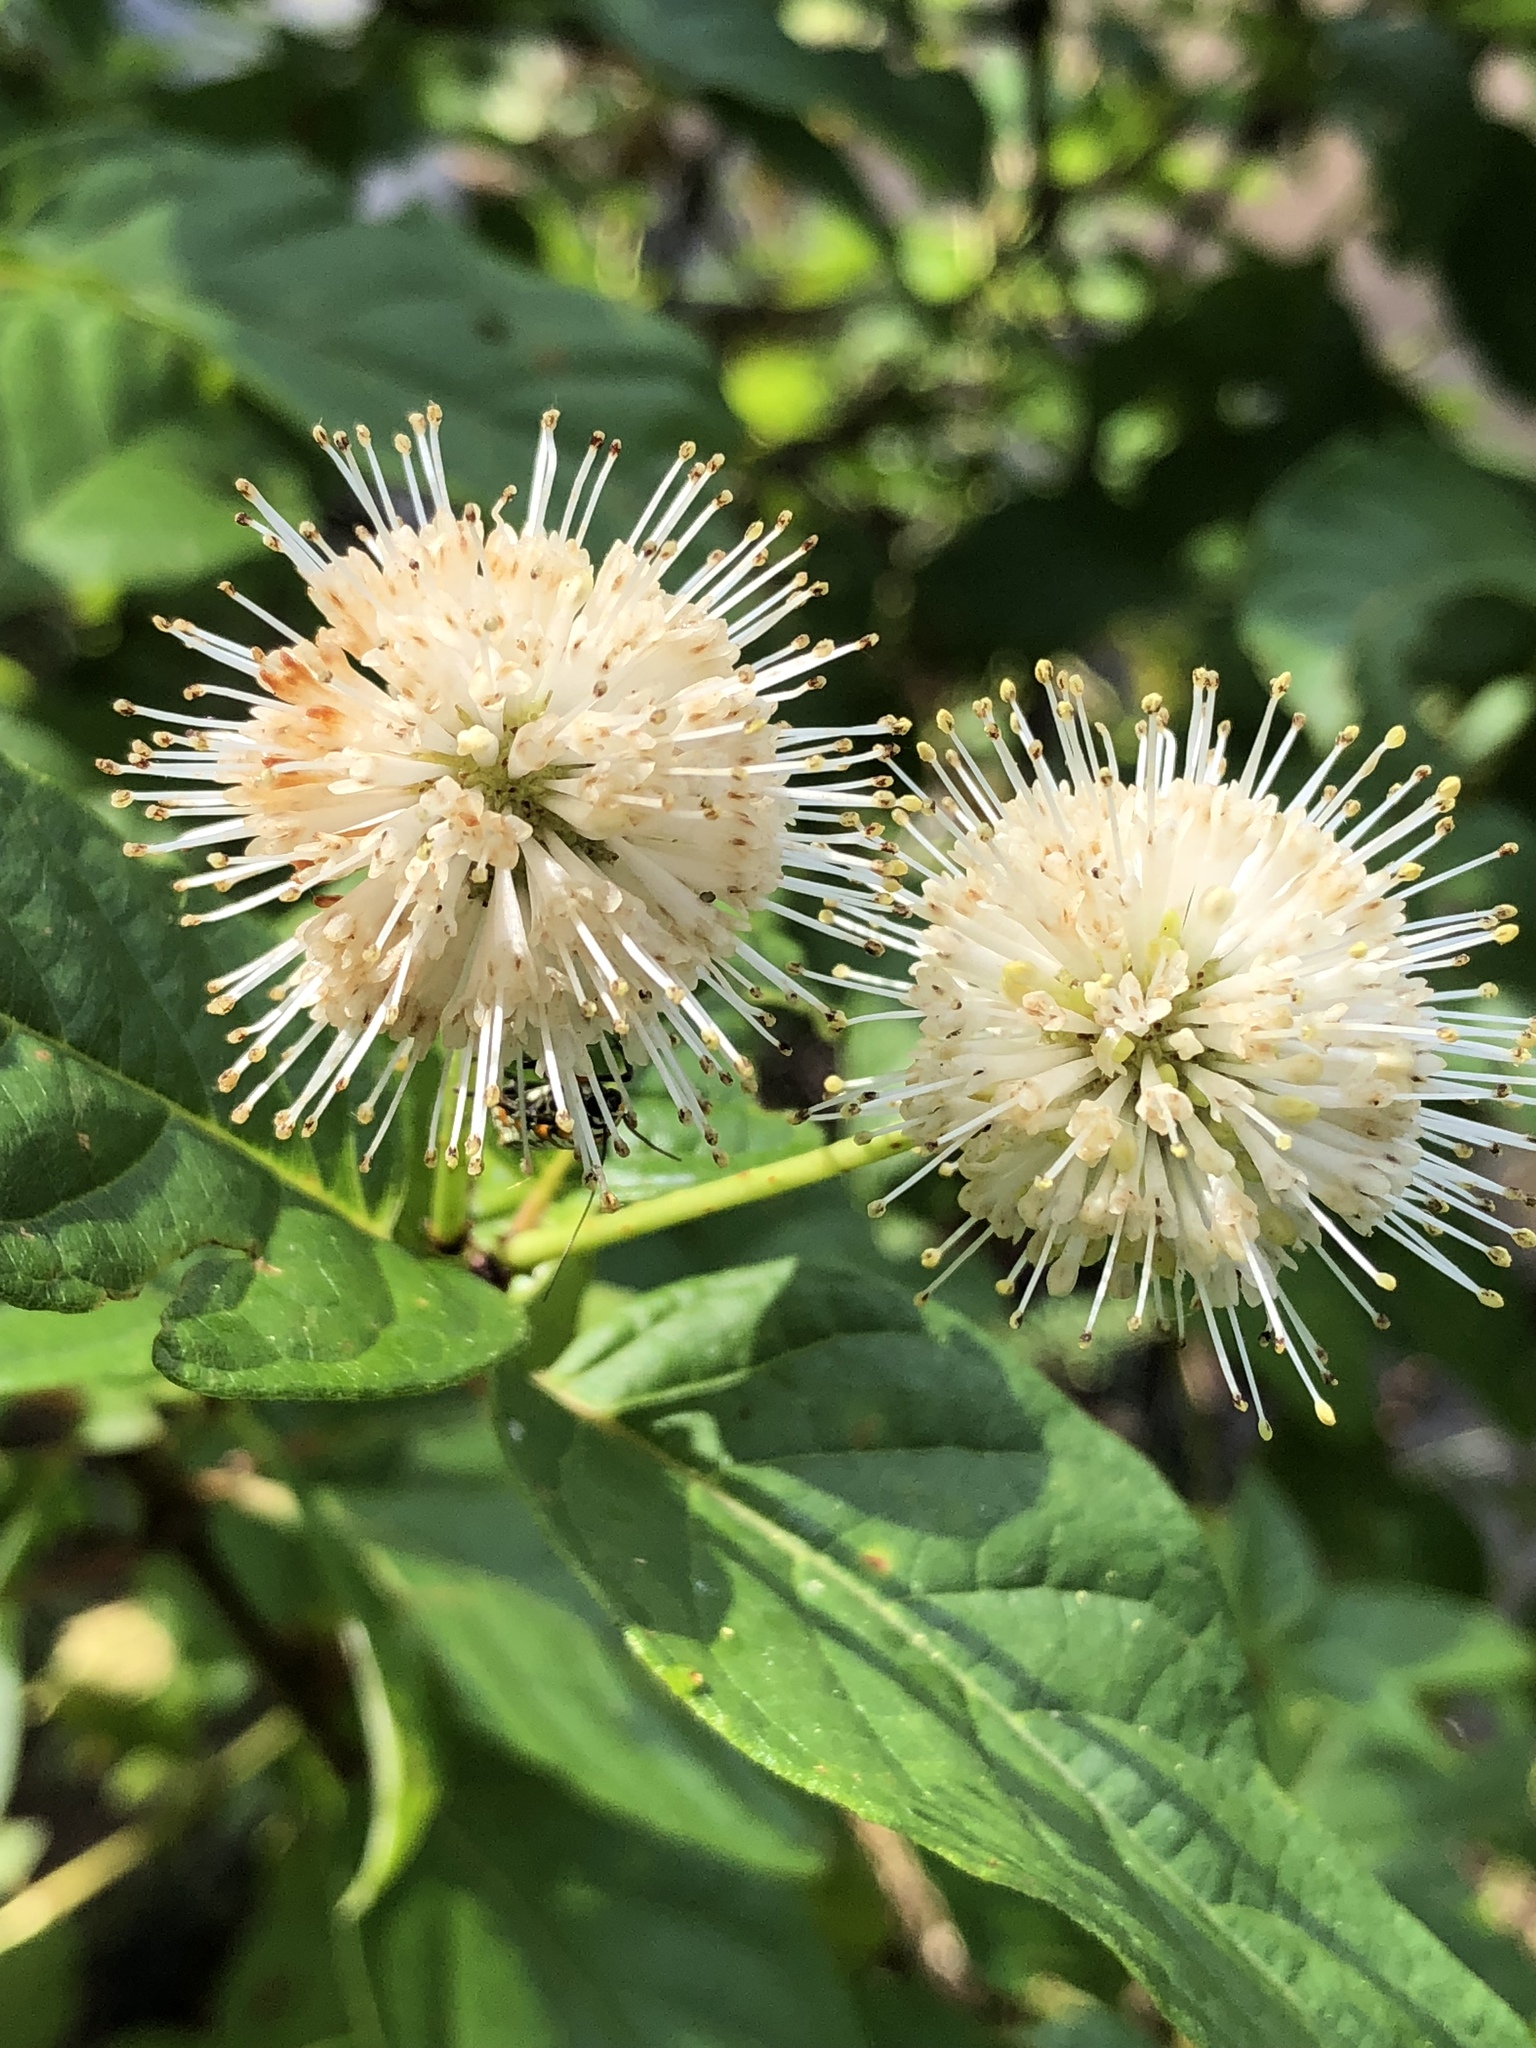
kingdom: Plantae
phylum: Tracheophyta
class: Magnoliopsida
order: Gentianales
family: Rubiaceae
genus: Cephalanthus
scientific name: Cephalanthus occidentalis
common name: Button-willow
